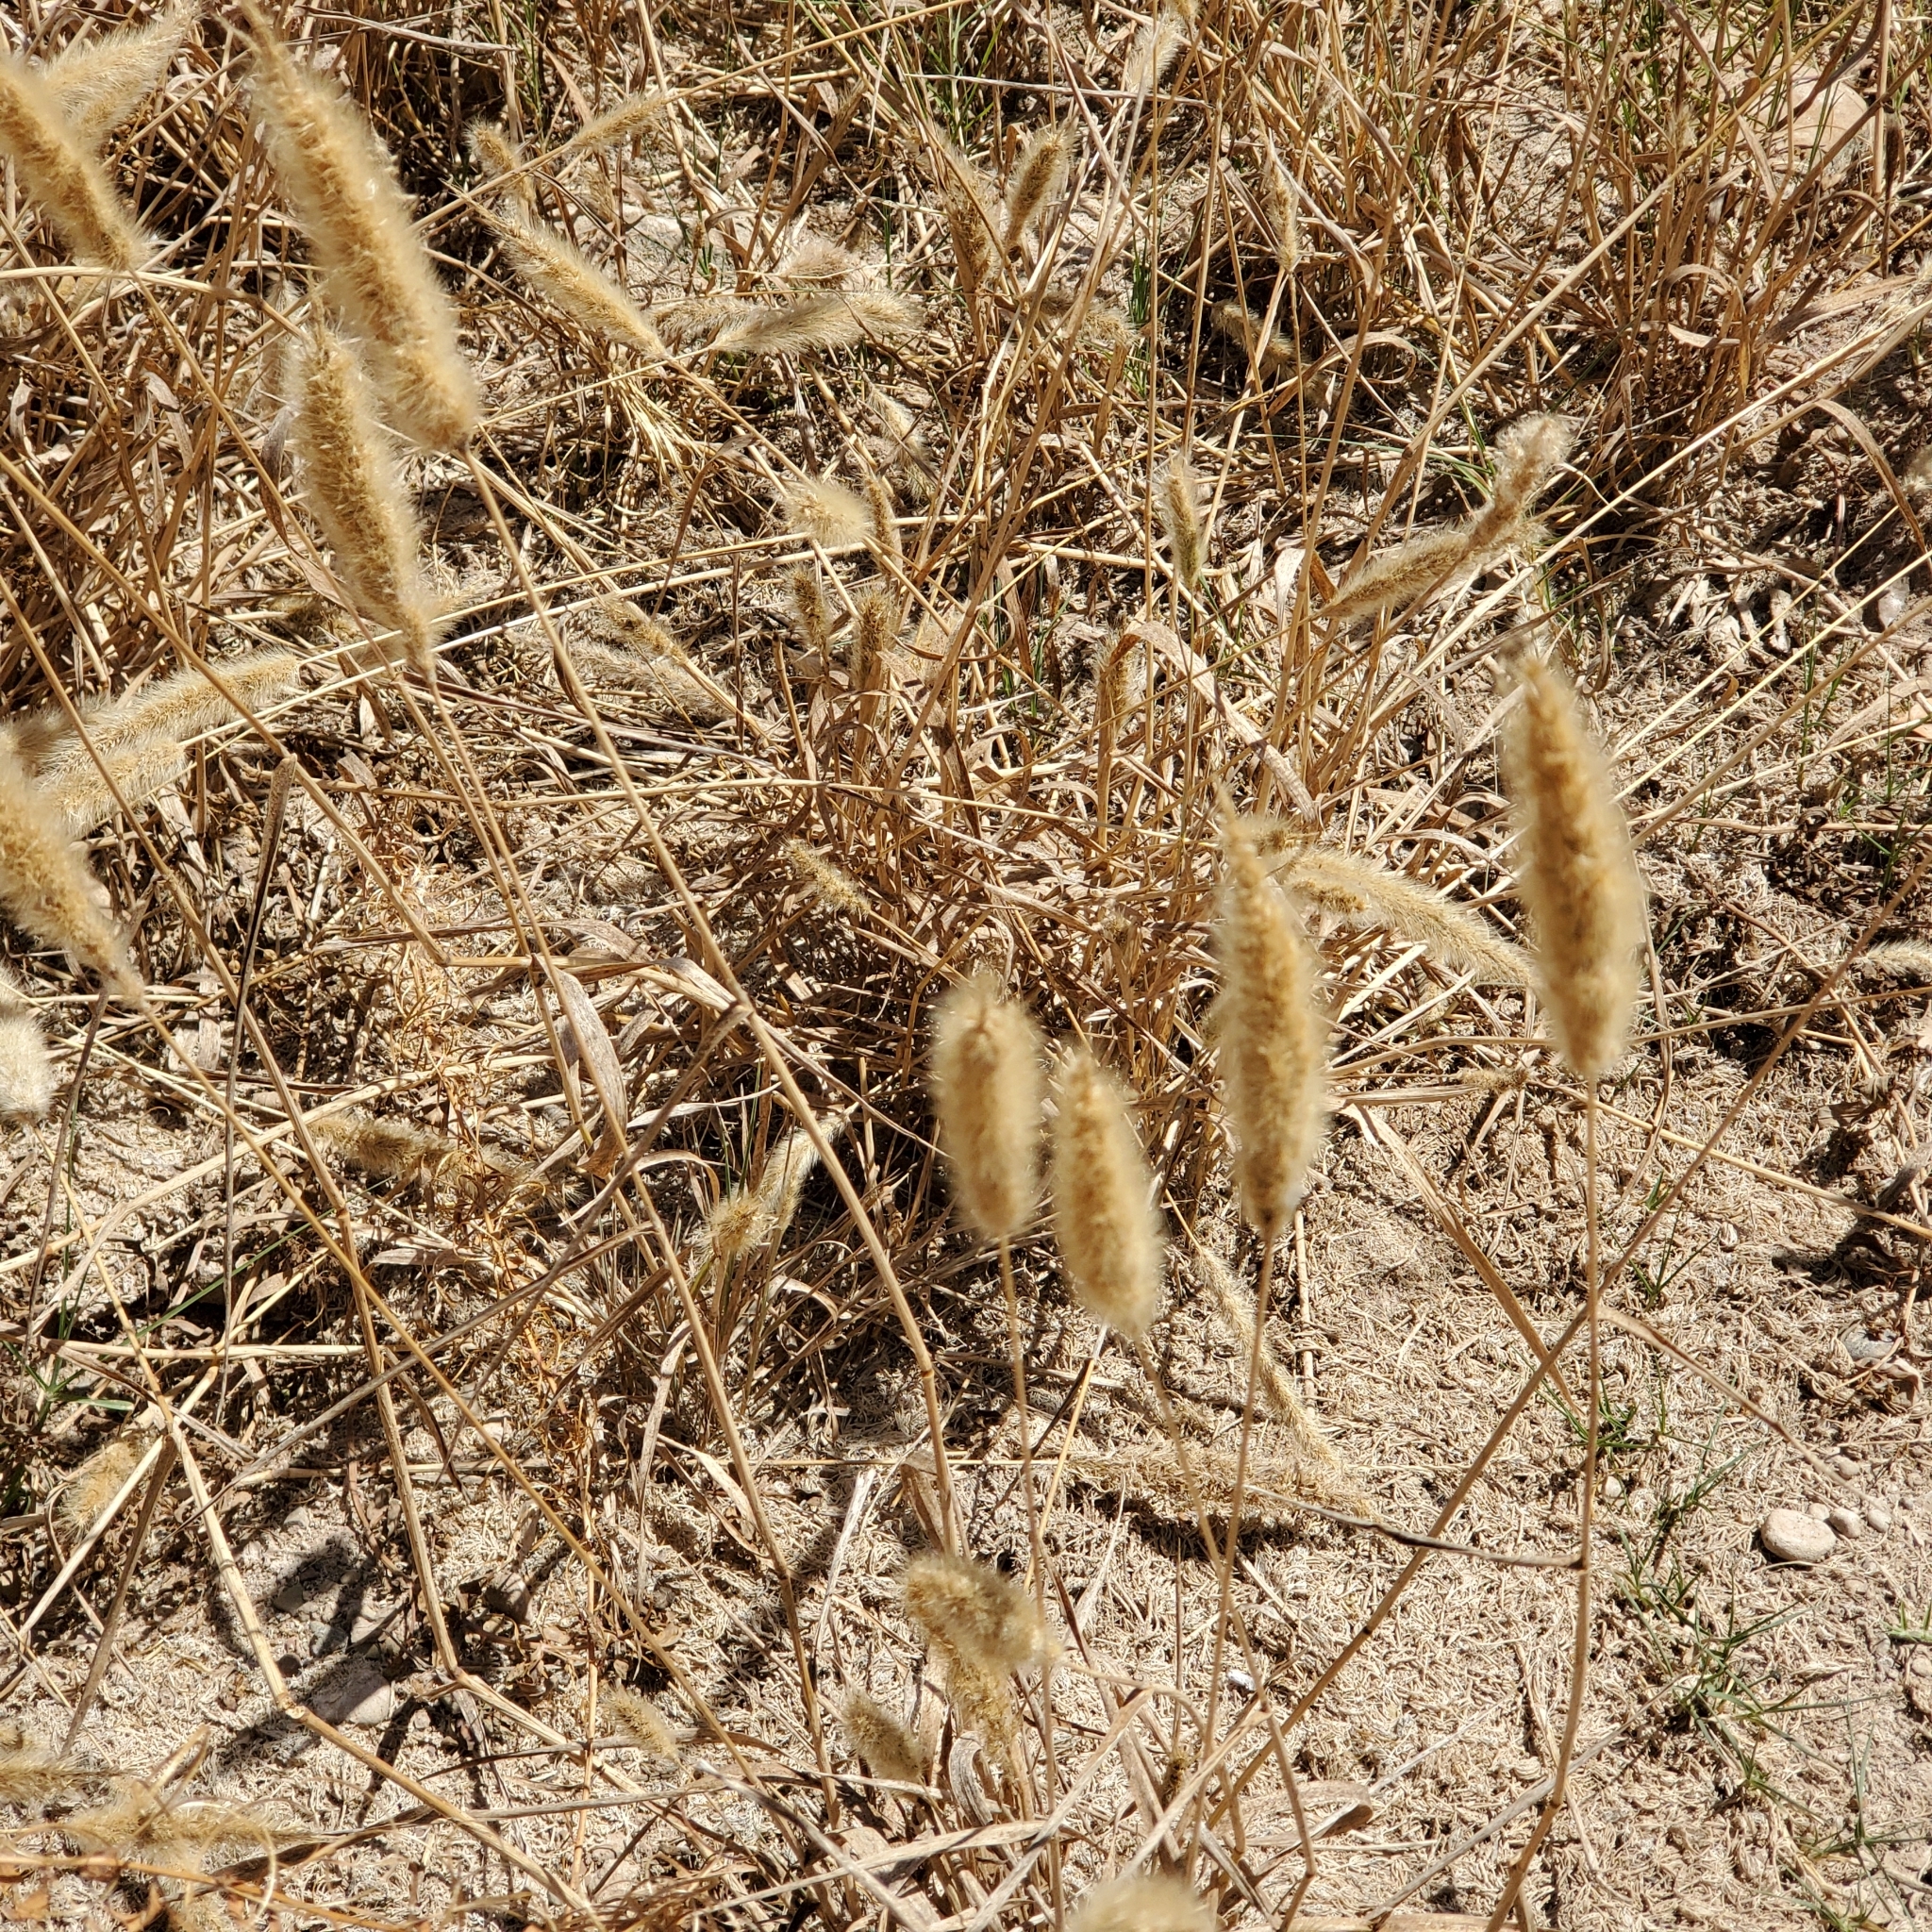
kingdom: Plantae
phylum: Tracheophyta
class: Liliopsida
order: Poales
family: Poaceae
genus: Polypogon
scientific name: Polypogon monspeliensis
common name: Annual rabbitsfoot grass
